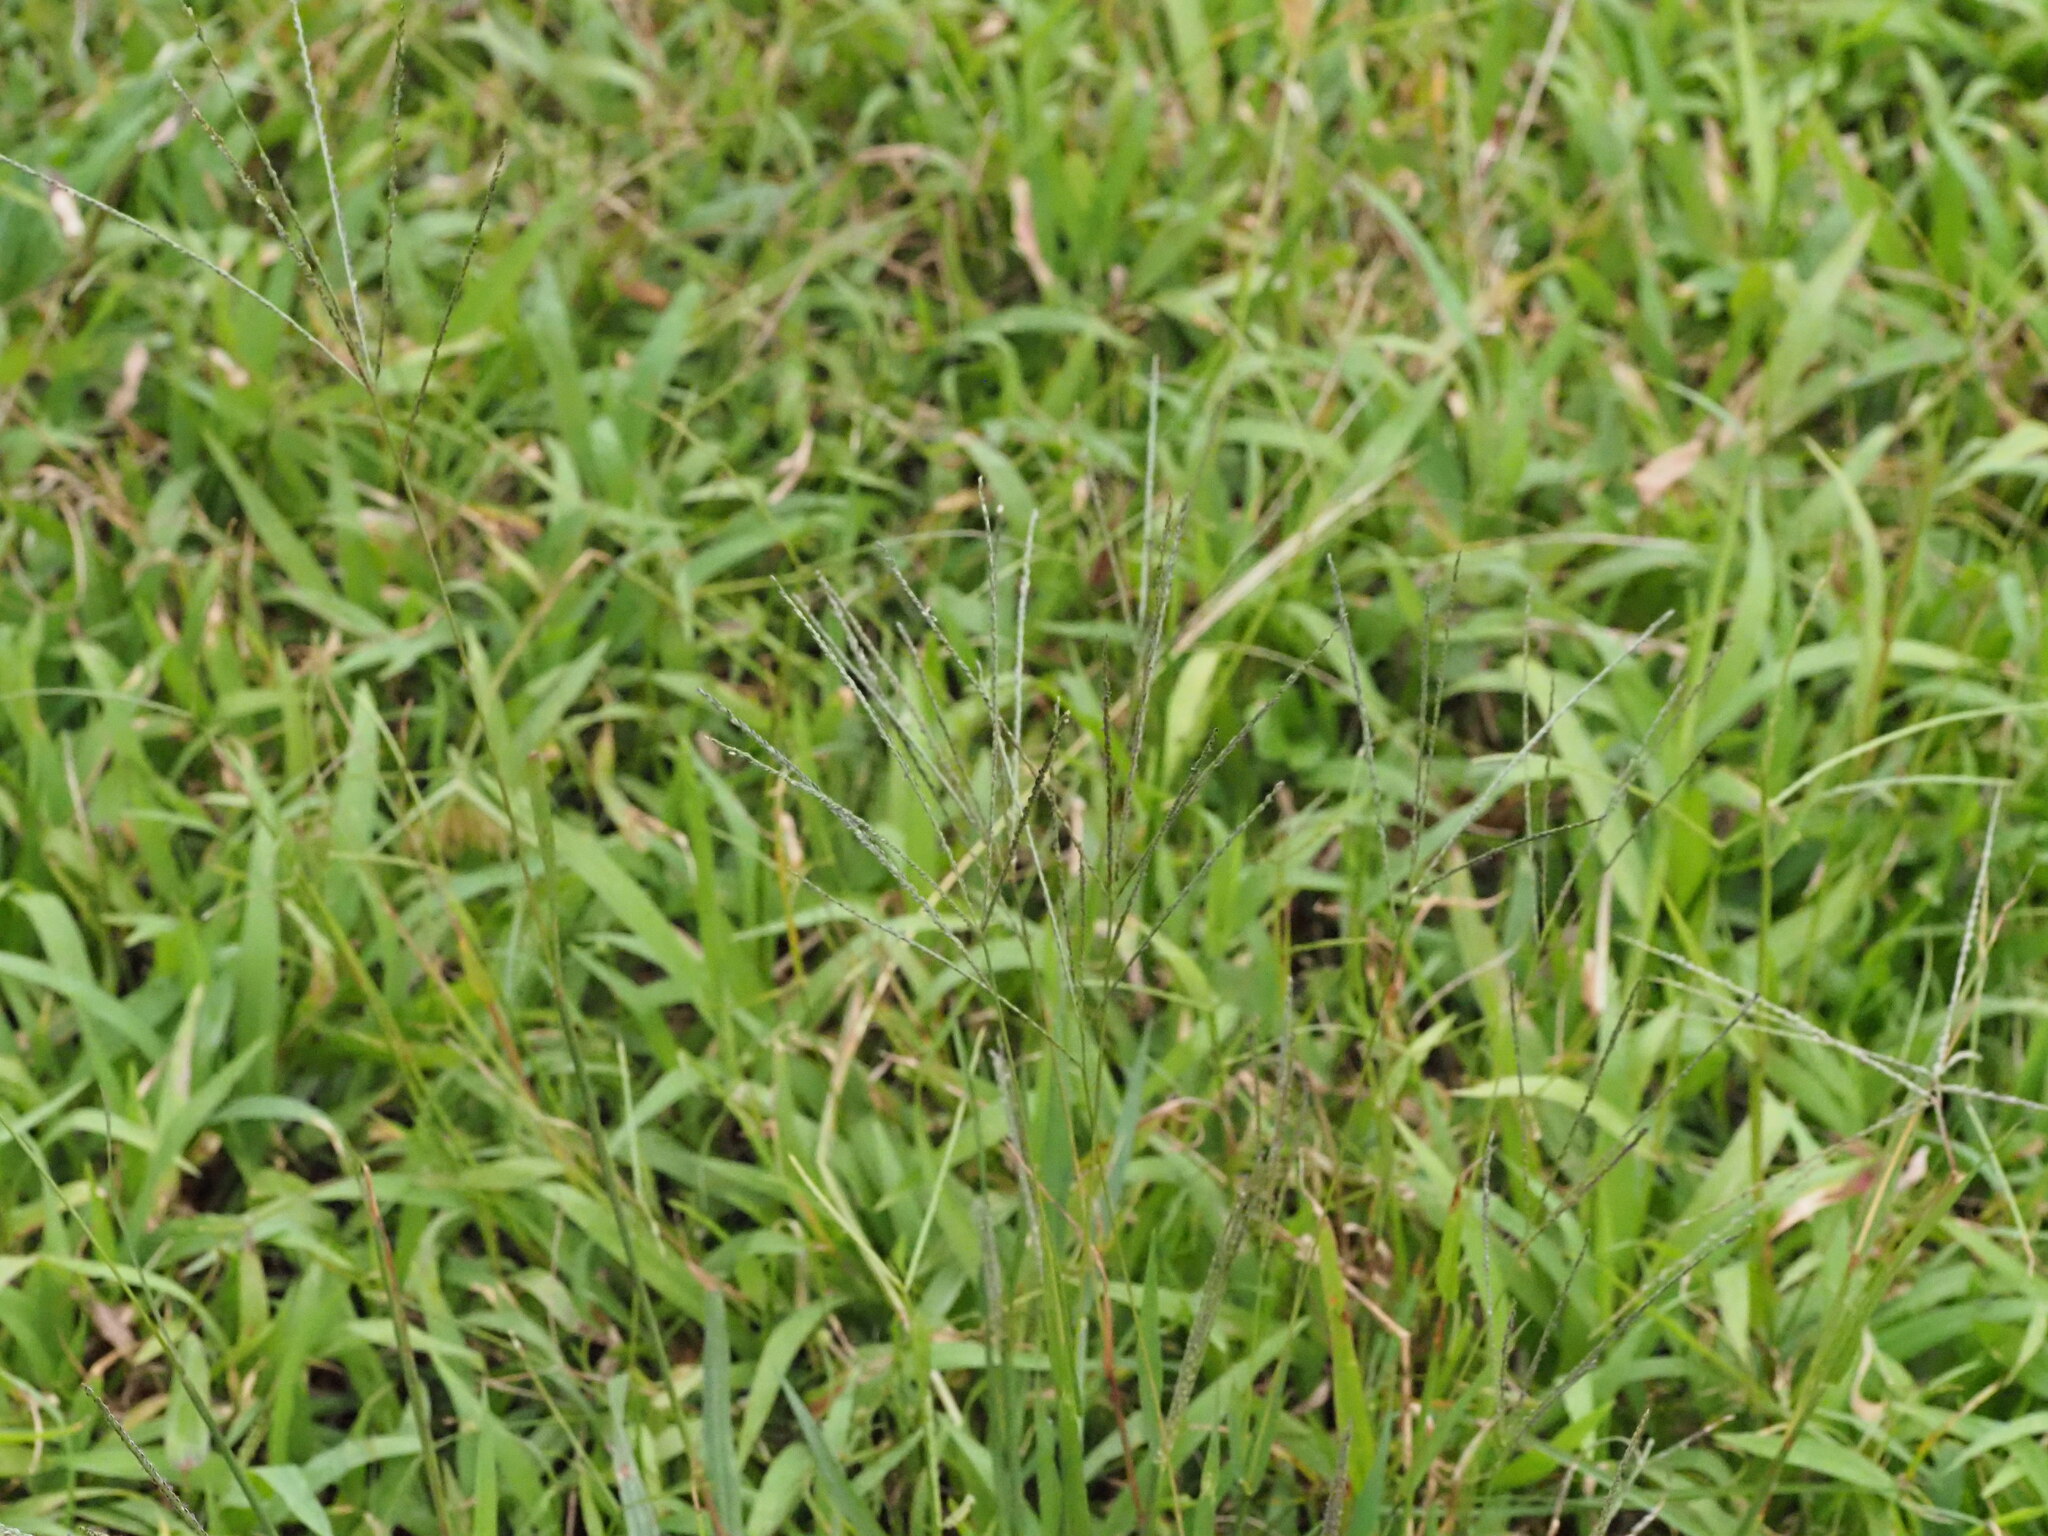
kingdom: Plantae
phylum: Tracheophyta
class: Liliopsida
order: Poales
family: Poaceae
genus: Digitaria
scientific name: Digitaria stricta
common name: Crabgrass
